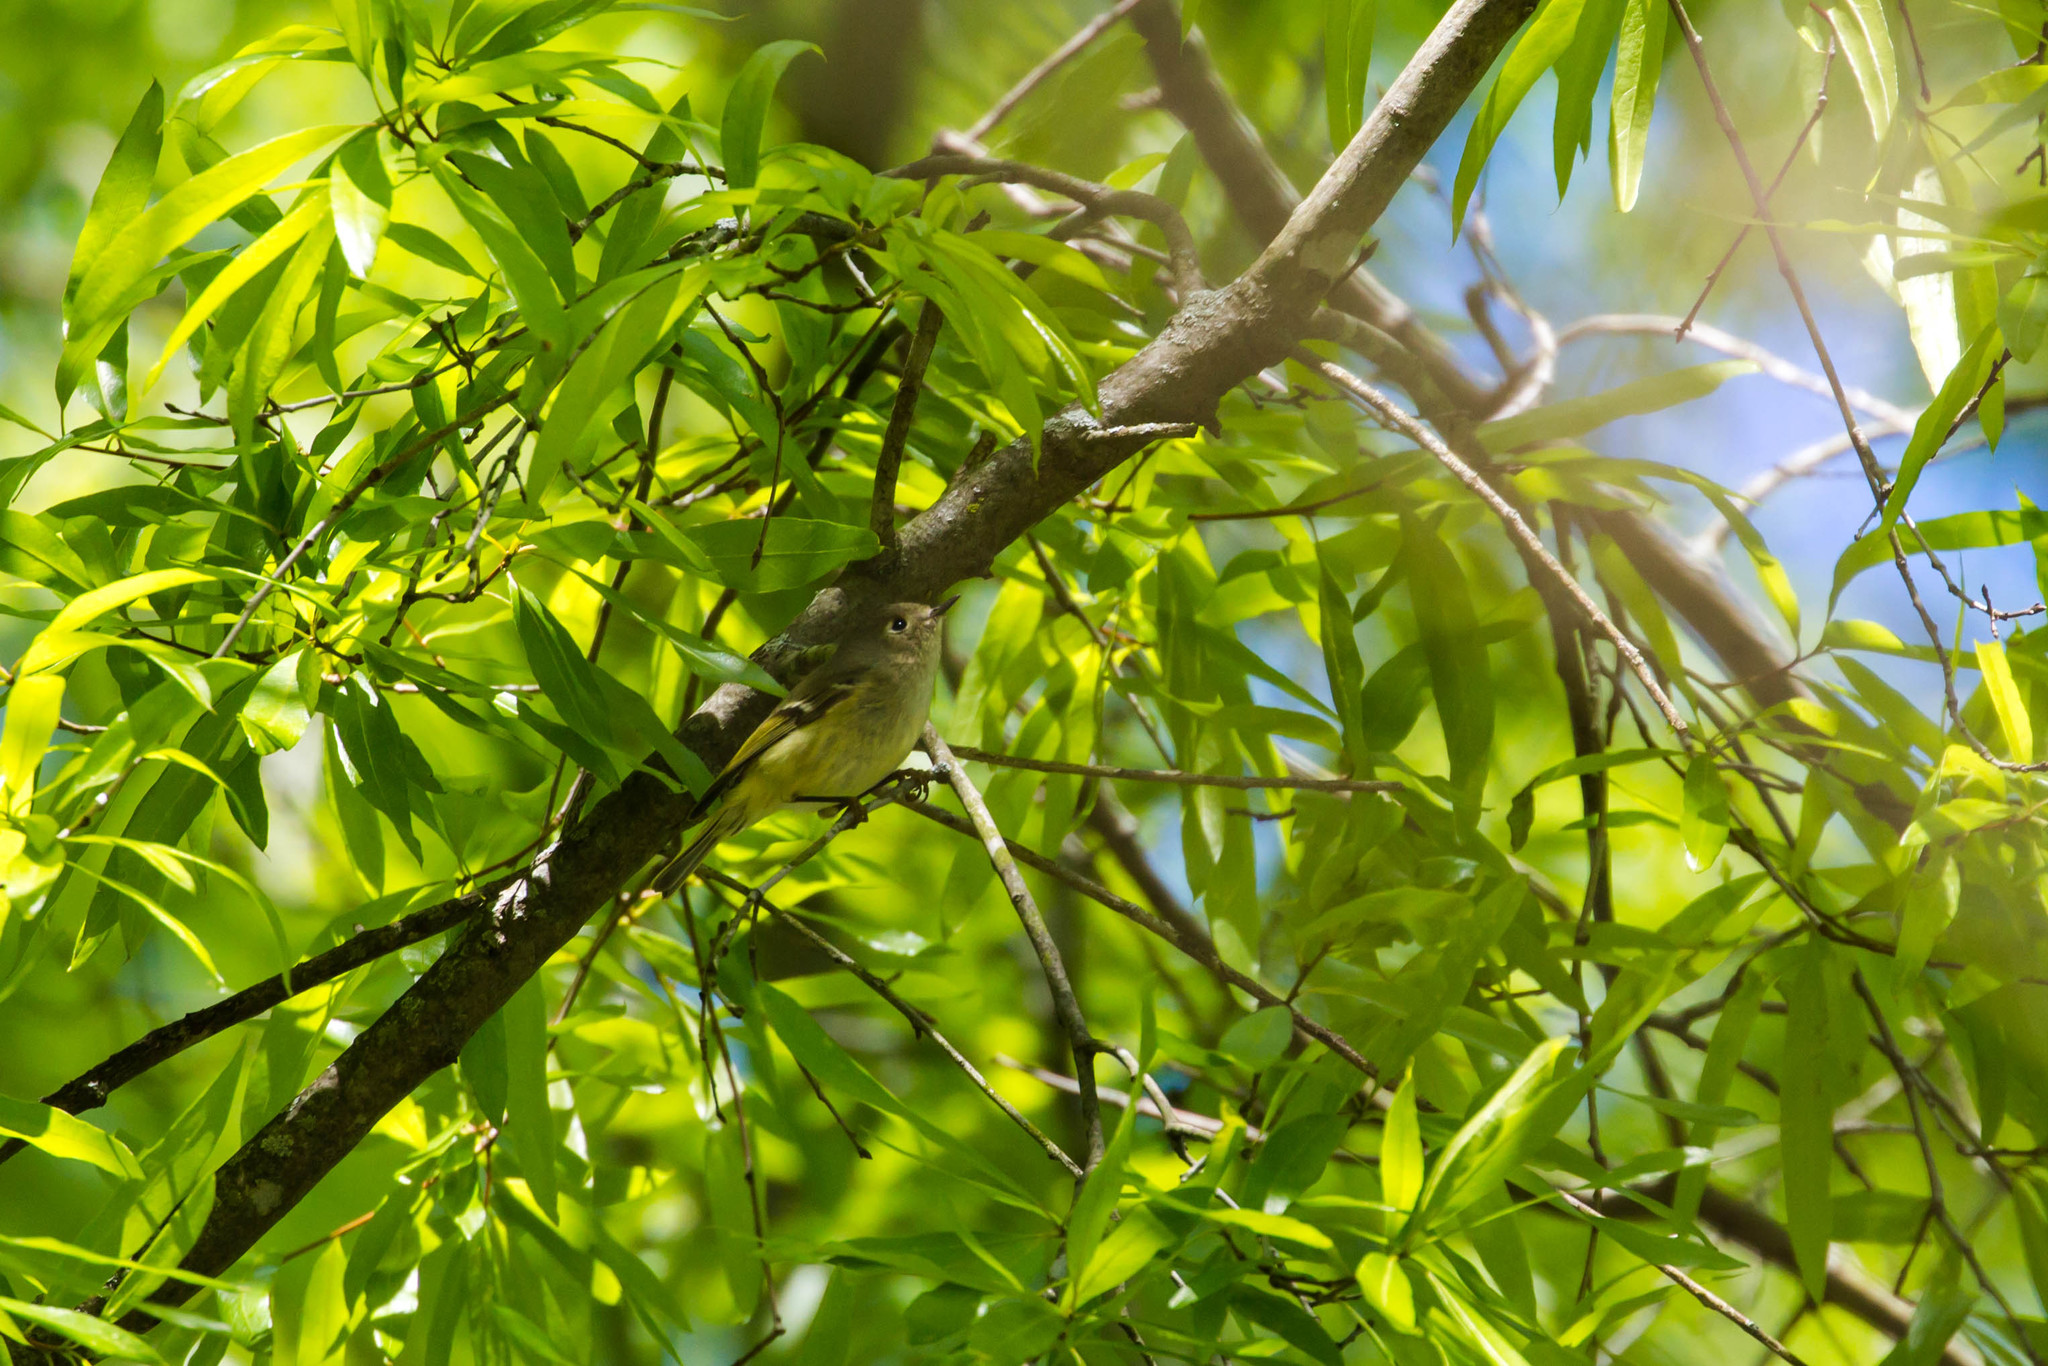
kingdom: Animalia
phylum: Chordata
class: Aves
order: Passeriformes
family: Regulidae
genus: Regulus
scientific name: Regulus calendula
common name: Ruby-crowned kinglet
